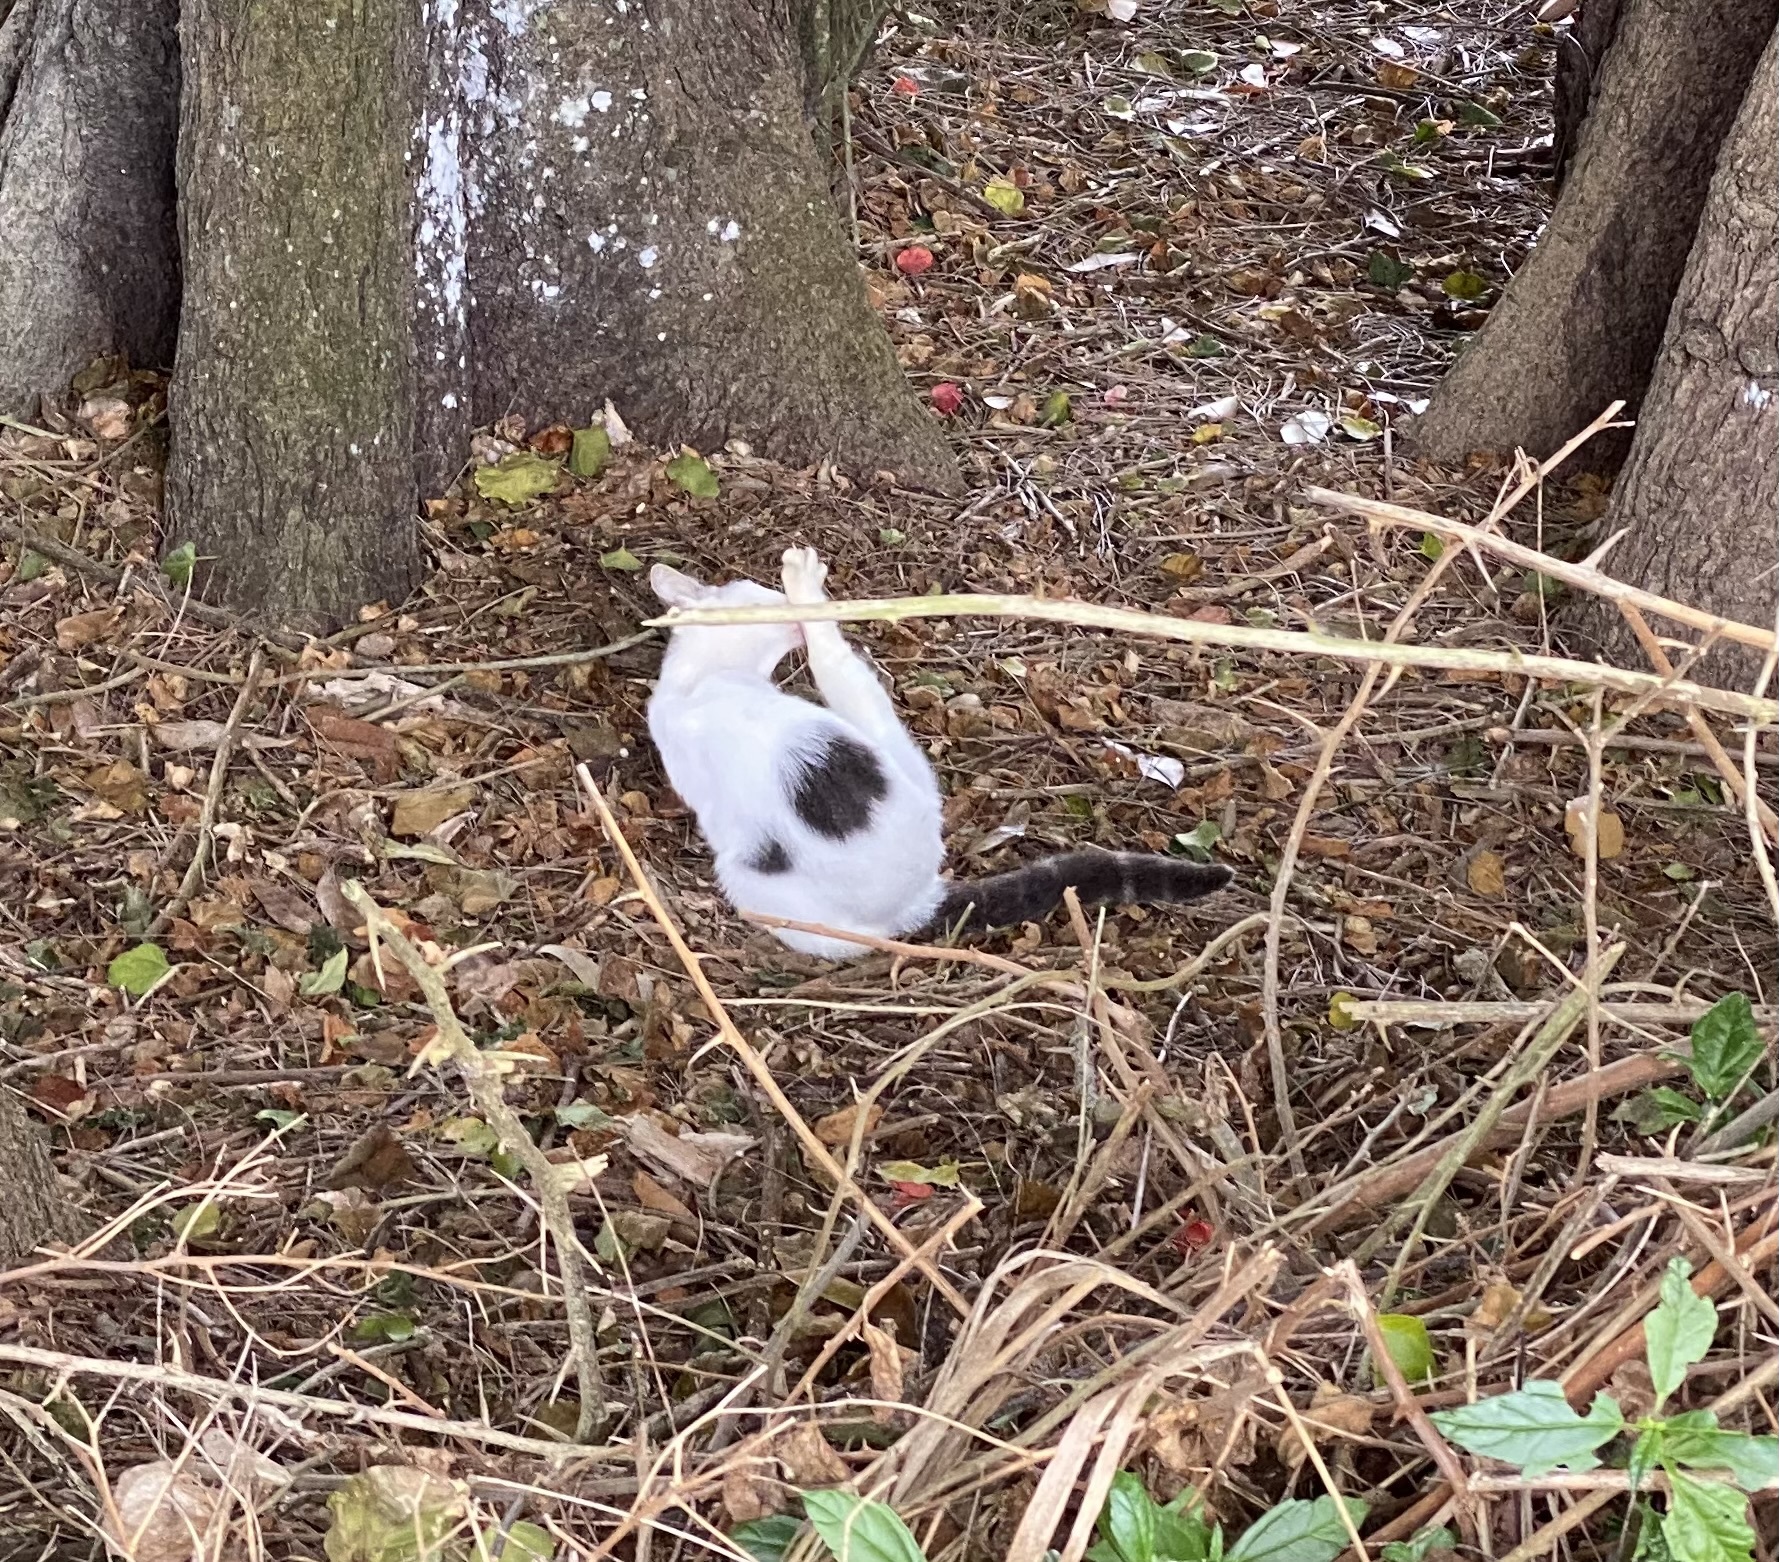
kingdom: Animalia
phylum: Chordata
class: Mammalia
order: Carnivora
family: Felidae
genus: Felis
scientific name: Felis catus
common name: Domestic cat
